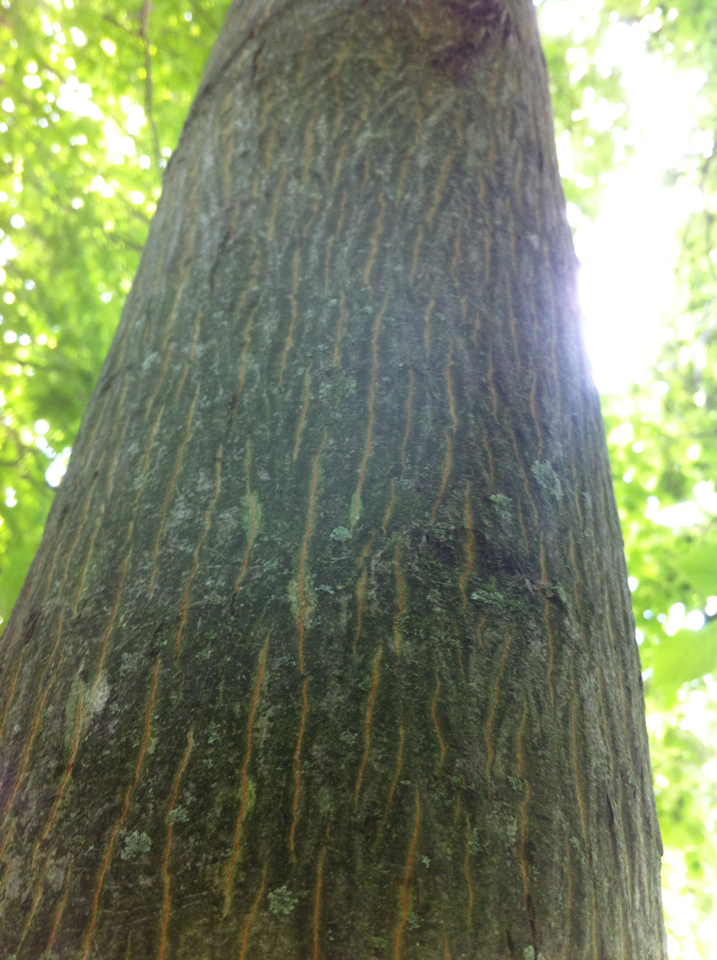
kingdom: Plantae
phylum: Tracheophyta
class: Magnoliopsida
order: Fagales
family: Juglandaceae
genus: Carya
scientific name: Carya cordiformis
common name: Bitternut hickory
